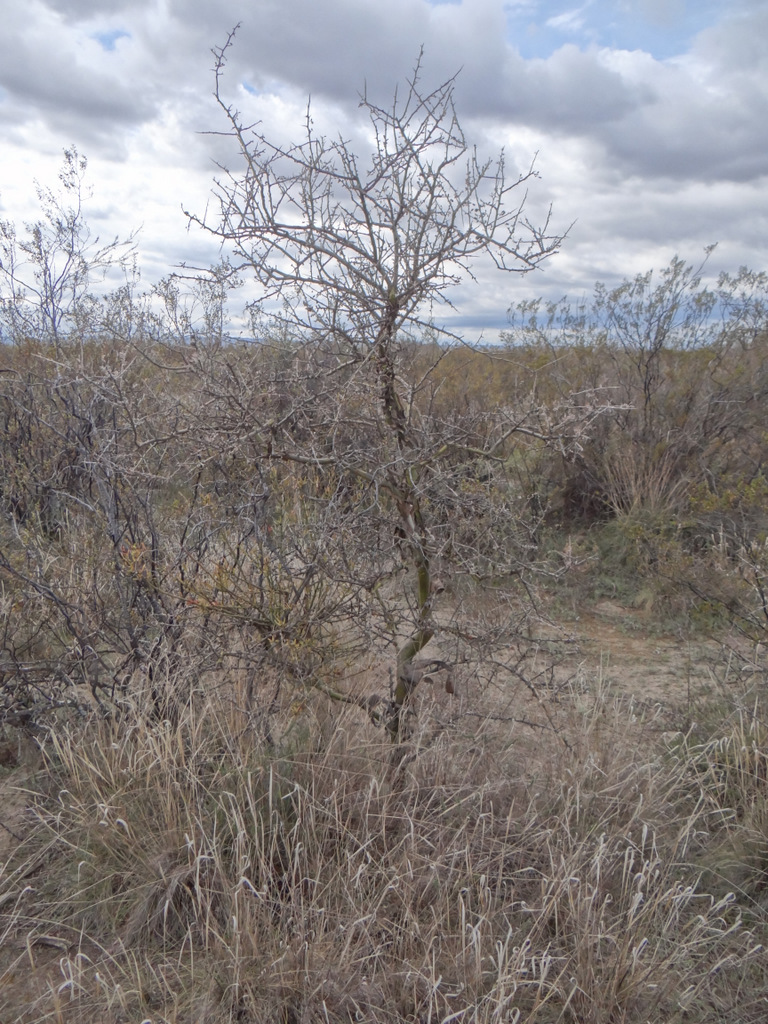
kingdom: Plantae
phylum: Tracheophyta
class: Magnoliopsida
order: Fabales
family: Fabaceae
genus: Geoffroea
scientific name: Geoffroea decorticans
